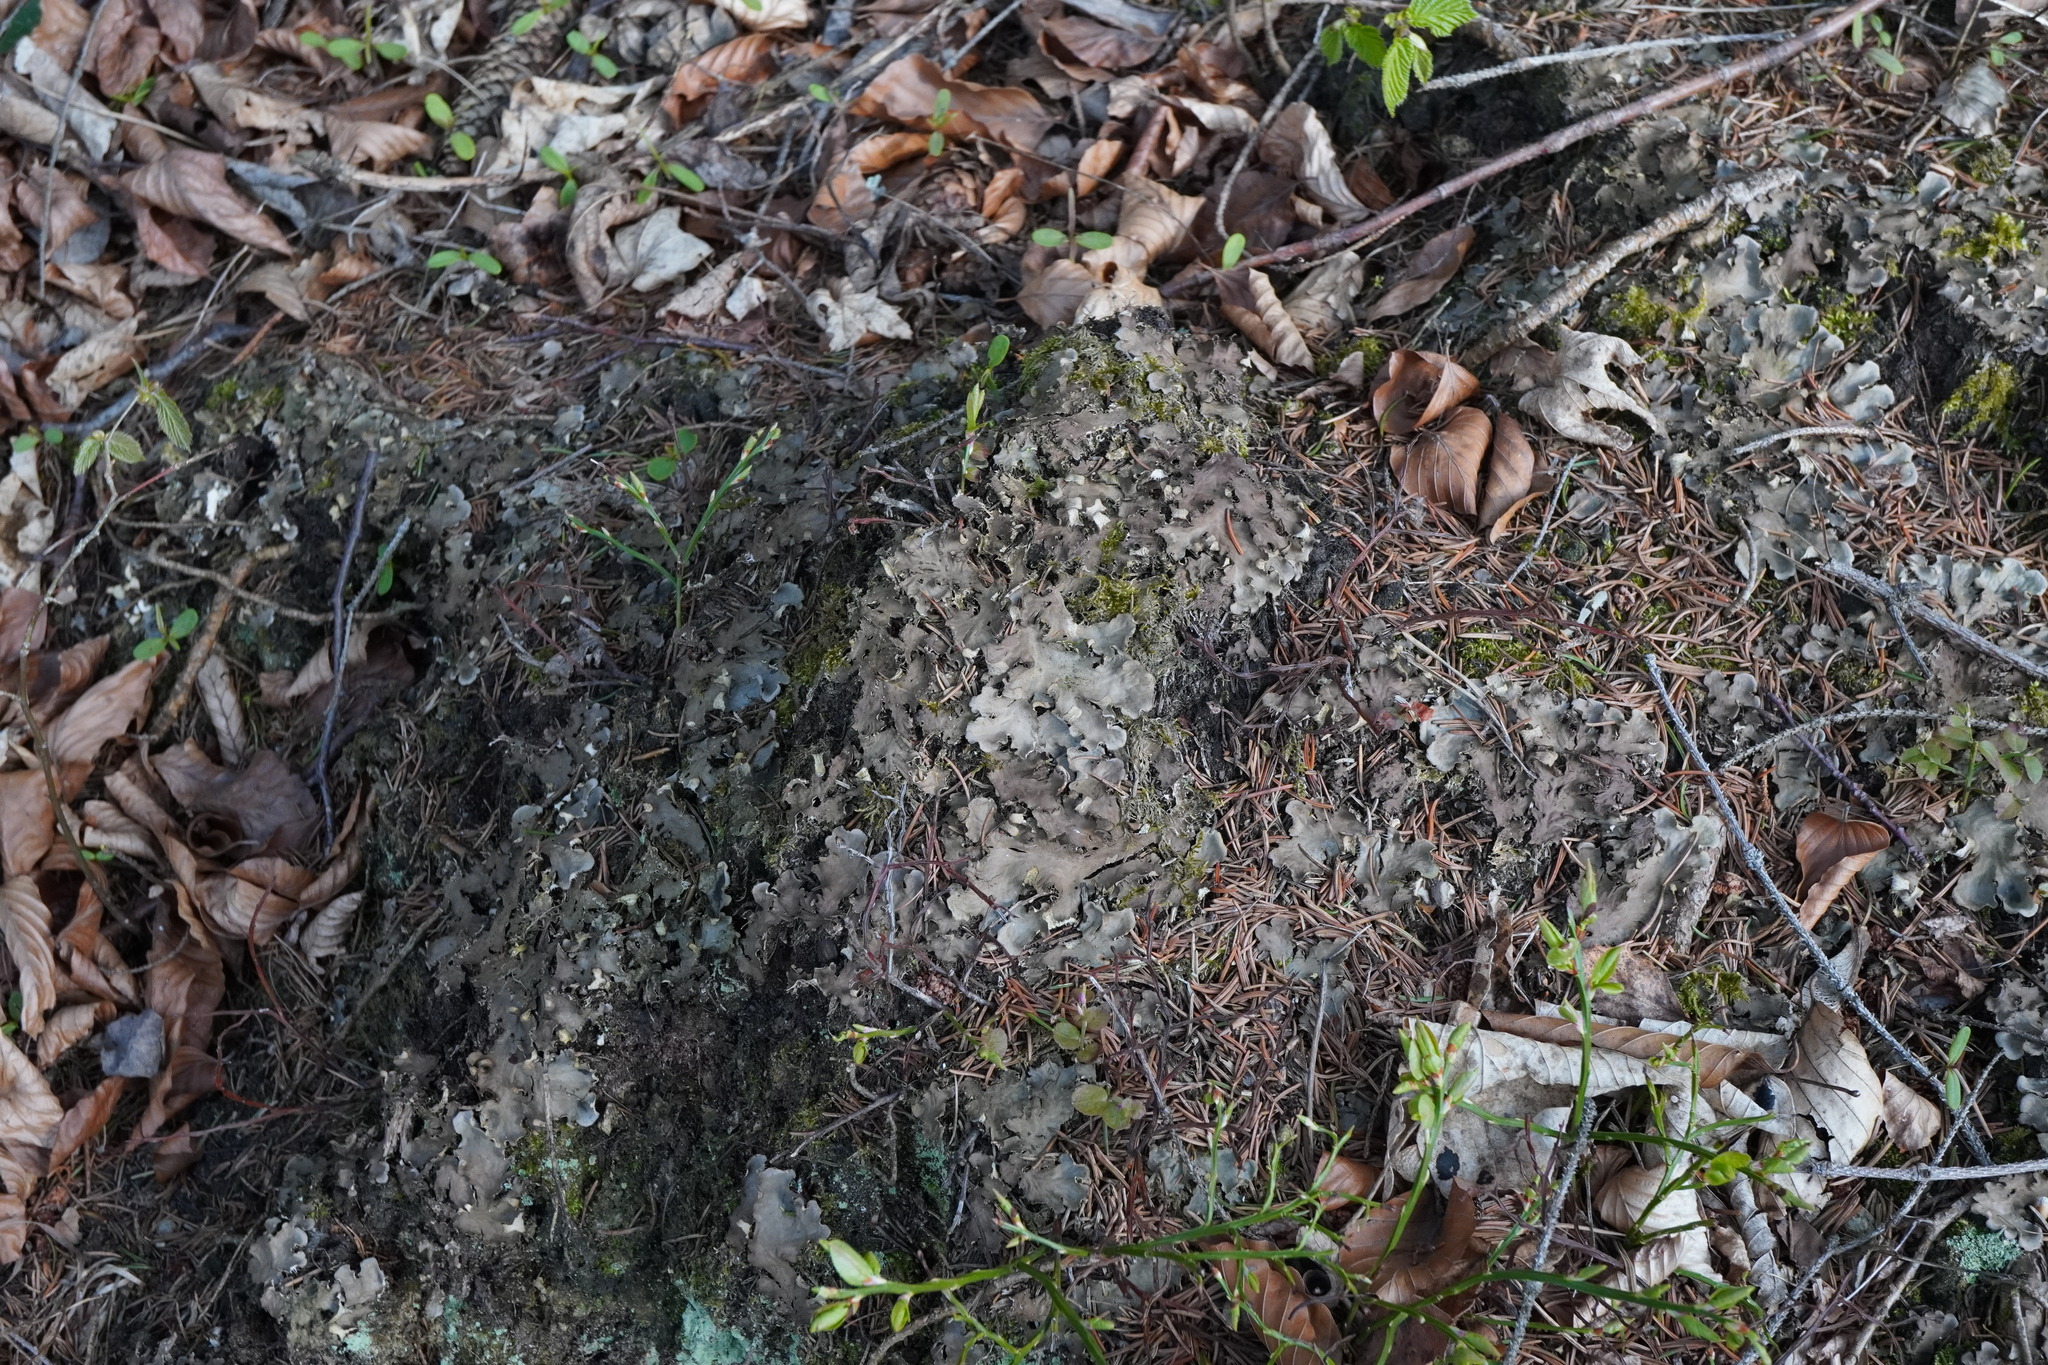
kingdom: Fungi
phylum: Ascomycota
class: Lecanoromycetes
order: Peltigerales
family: Peltigeraceae
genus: Peltigera
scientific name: Peltigera praetextata
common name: Scaly dog-lichen
